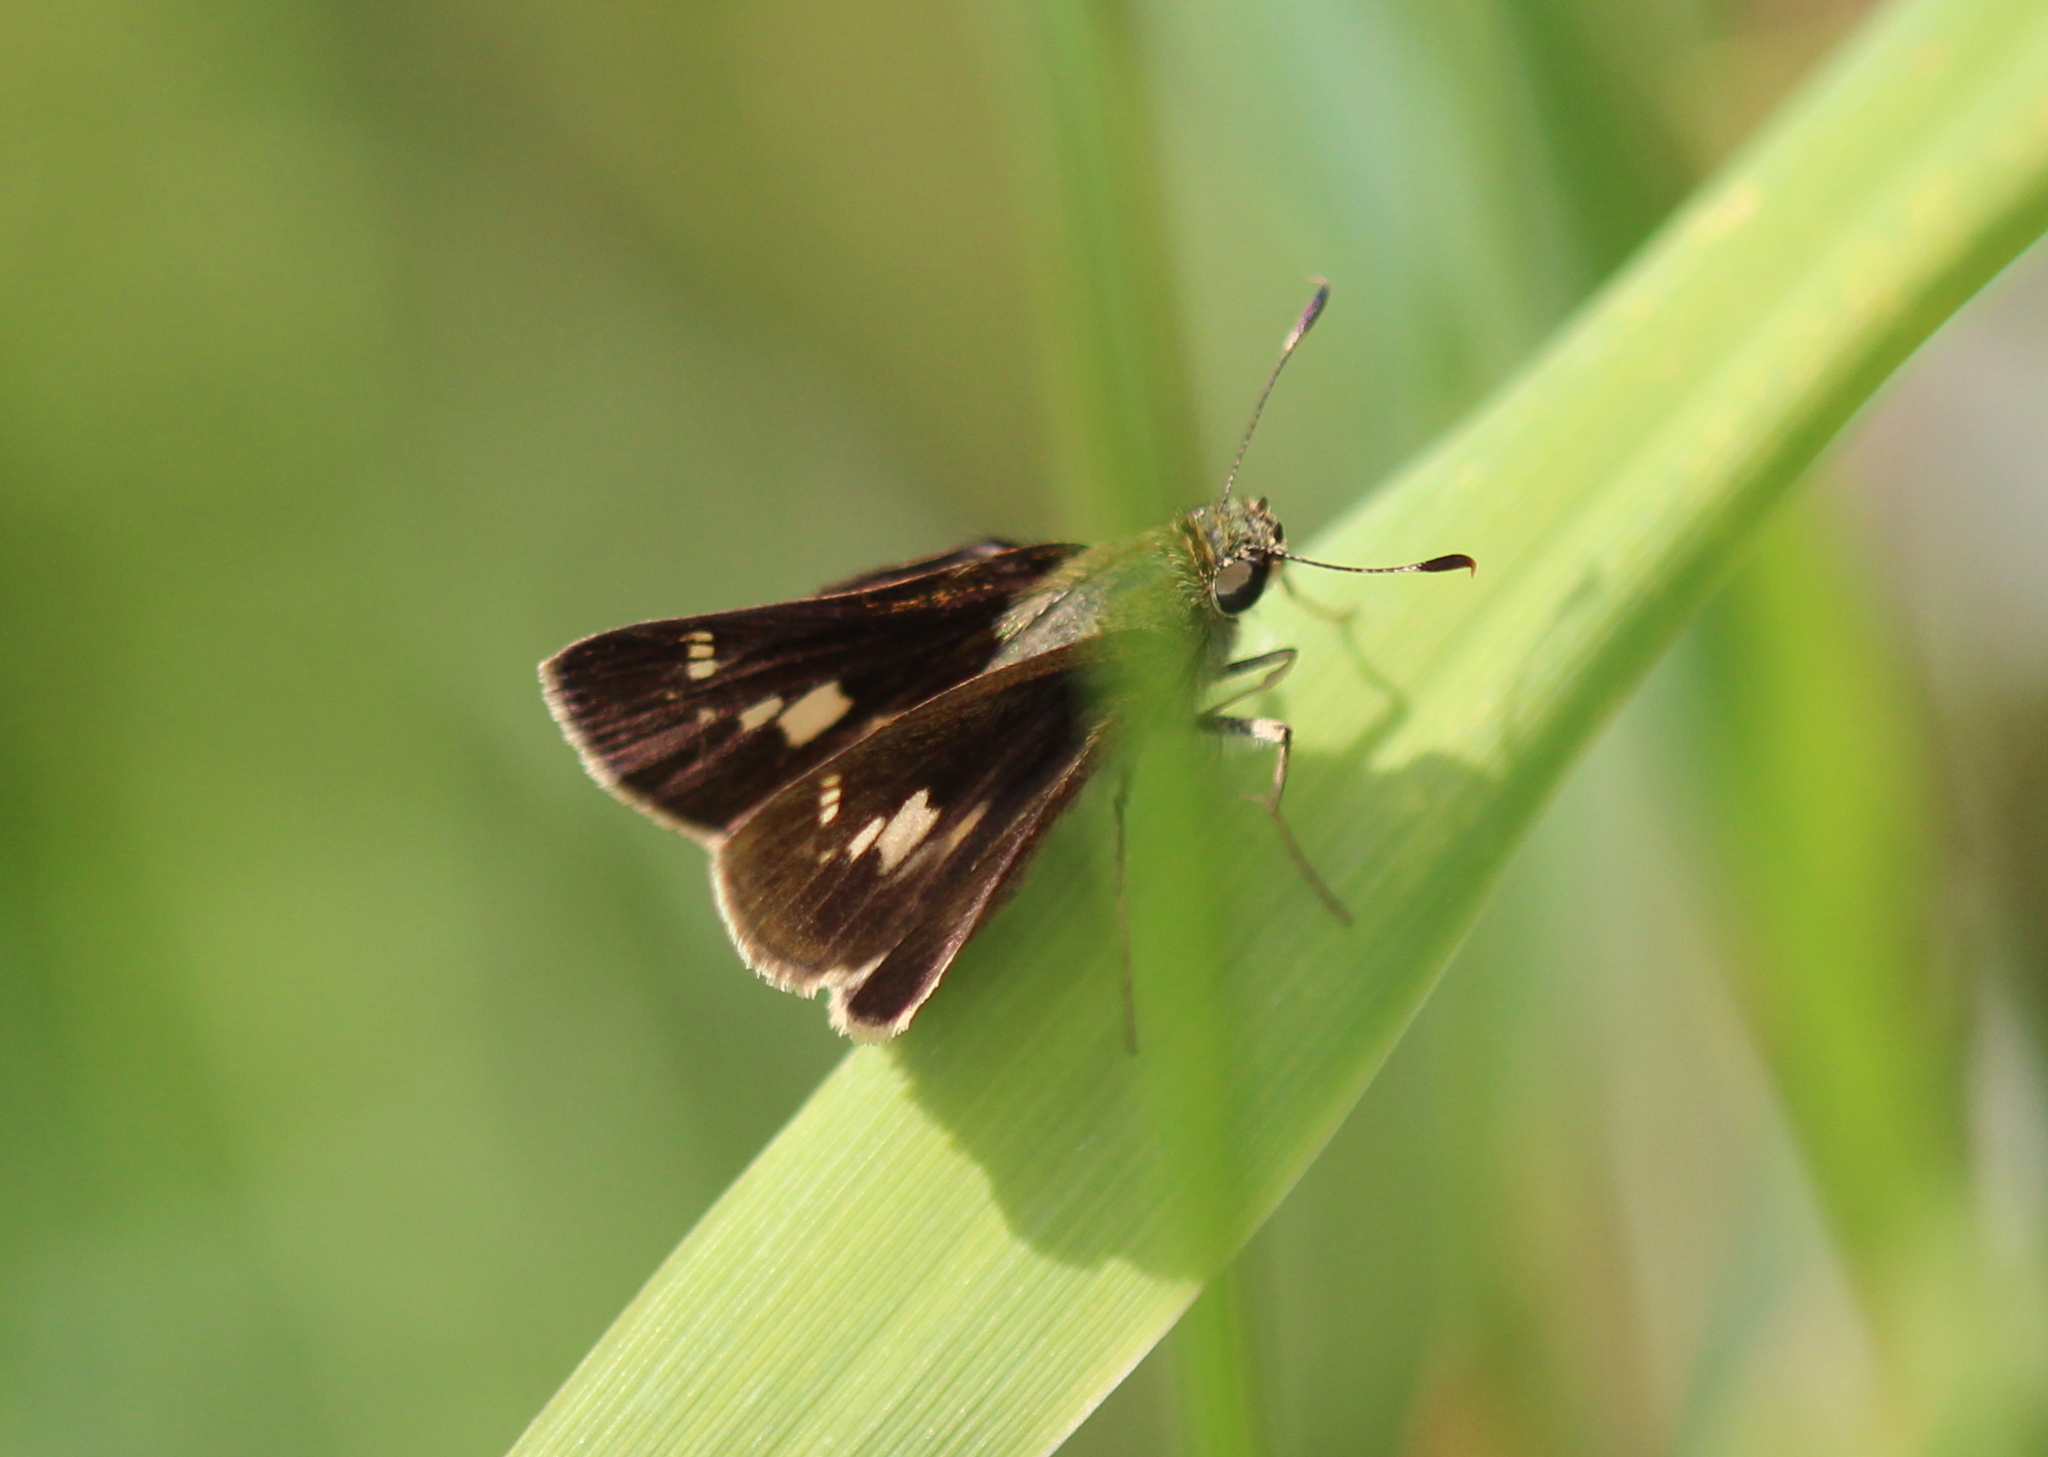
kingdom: Animalia
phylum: Arthropoda
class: Insecta
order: Lepidoptera
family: Hesperiidae
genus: Vernia
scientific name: Vernia verna
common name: Little glassywing
